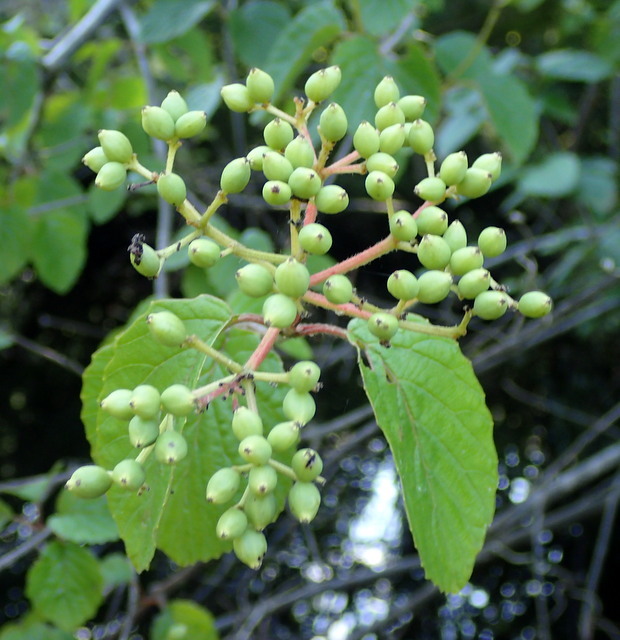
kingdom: Plantae
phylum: Tracheophyta
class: Magnoliopsida
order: Dipsacales
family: Viburnaceae
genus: Viburnum
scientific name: Viburnum scabrellum
